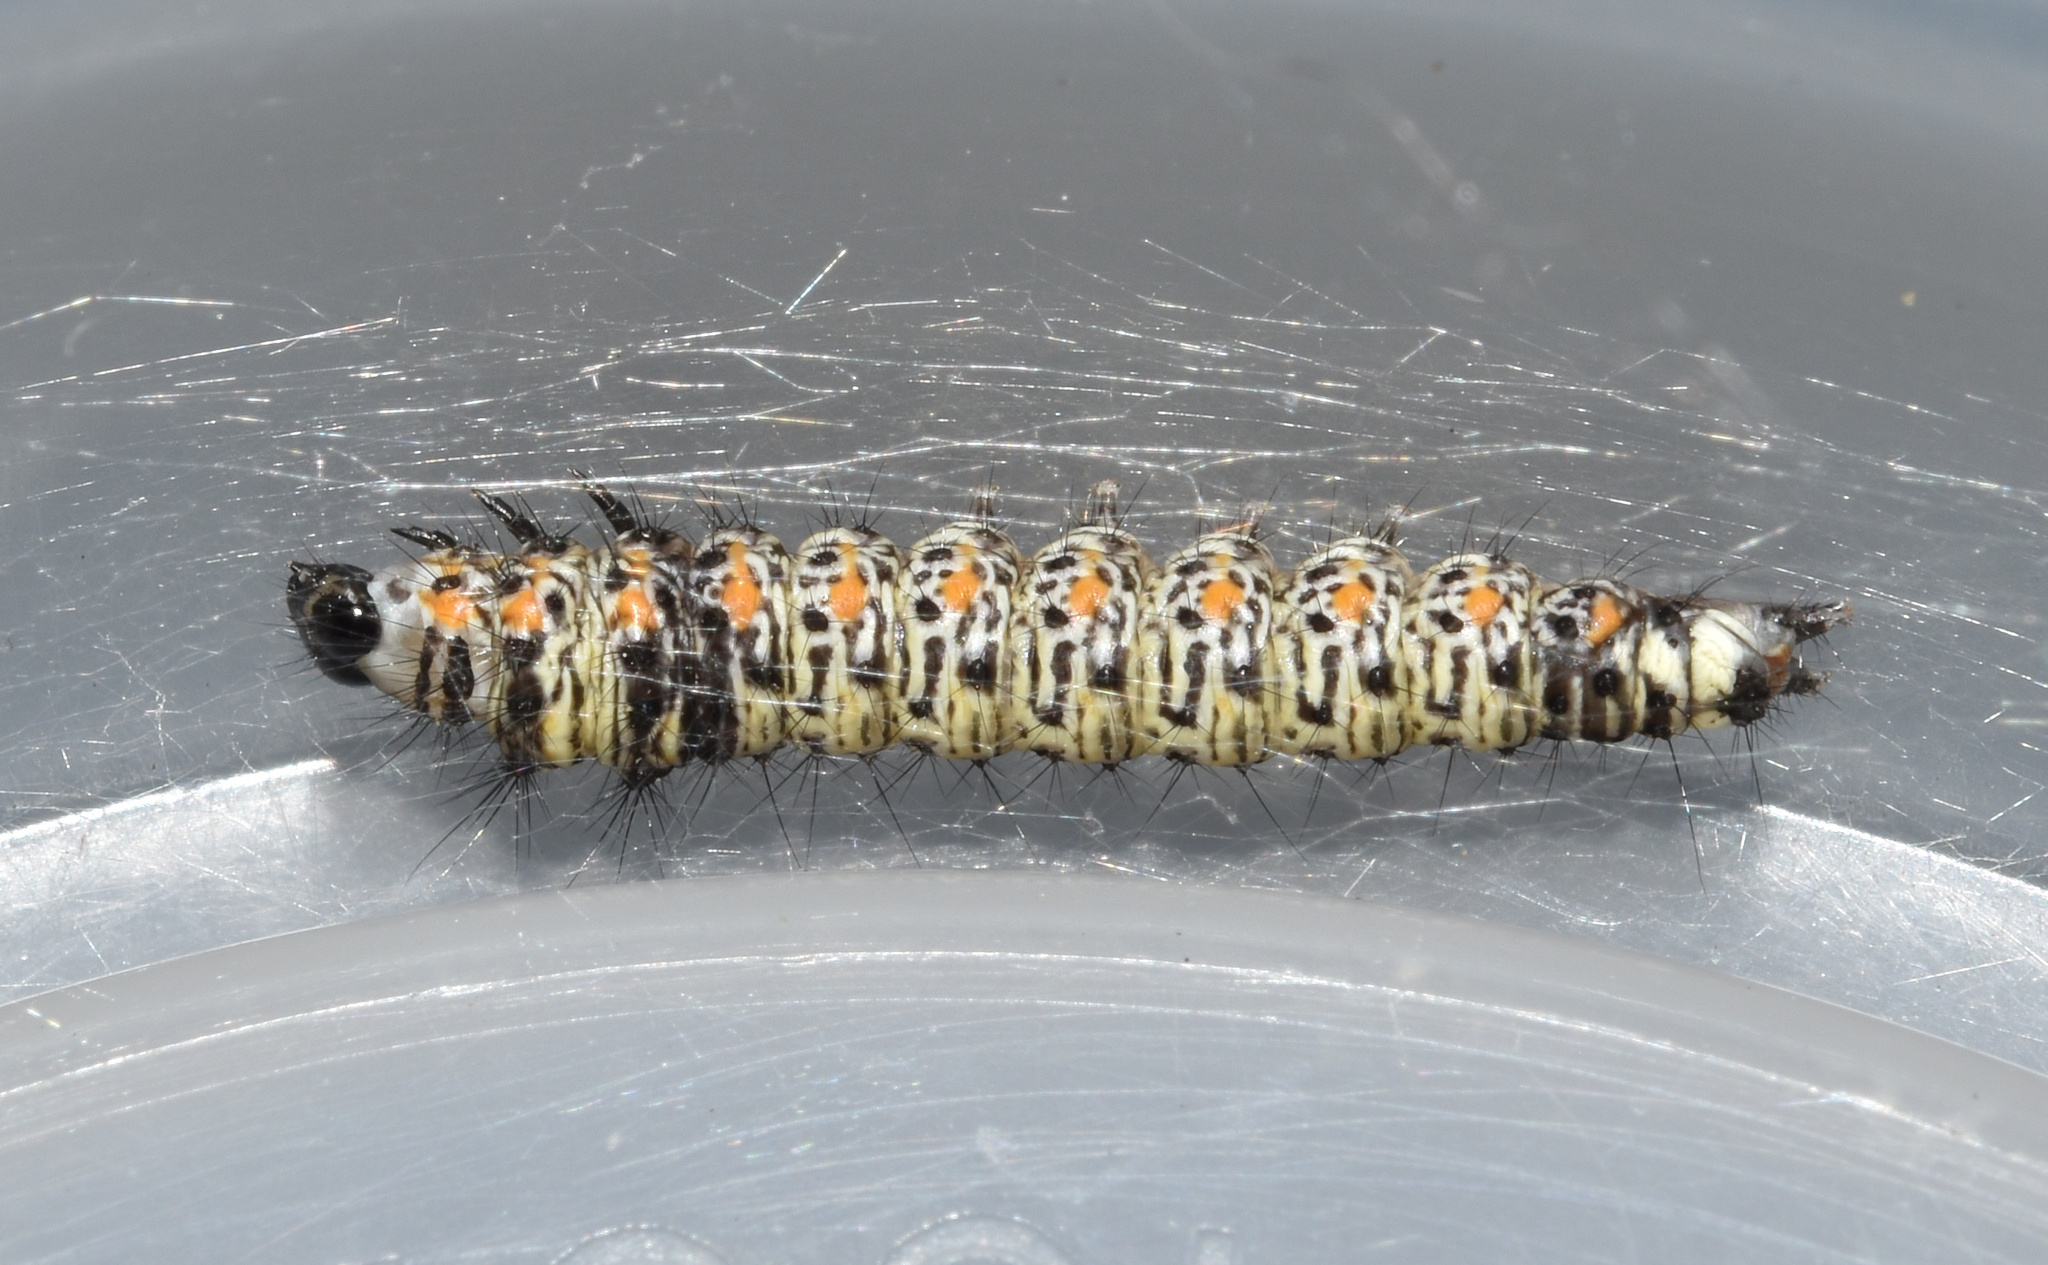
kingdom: Animalia
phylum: Arthropoda
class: Insecta
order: Lepidoptera
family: Ethmiidae
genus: Ethmia
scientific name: Ethmia circumdatella
